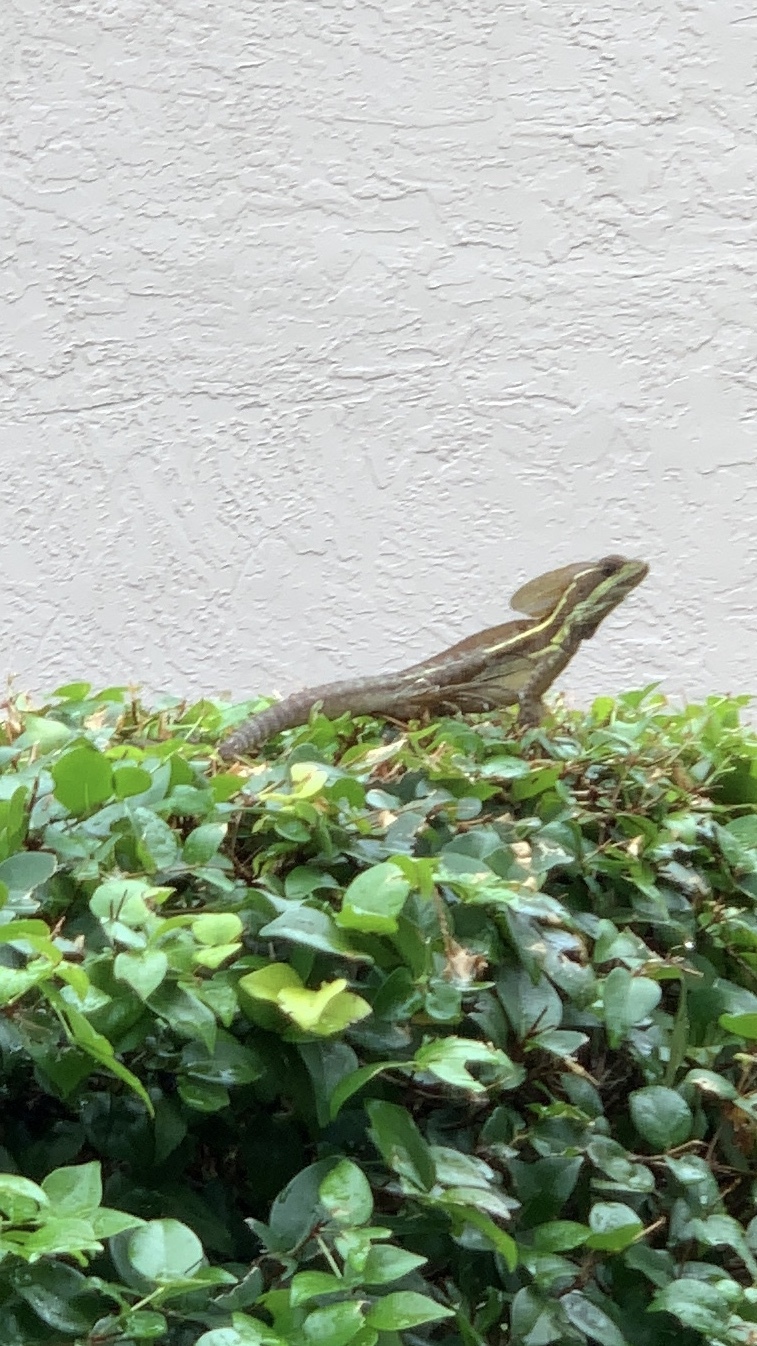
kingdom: Animalia
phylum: Chordata
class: Squamata
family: Corytophanidae
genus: Basiliscus
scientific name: Basiliscus vittatus
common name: Brown basilisk
